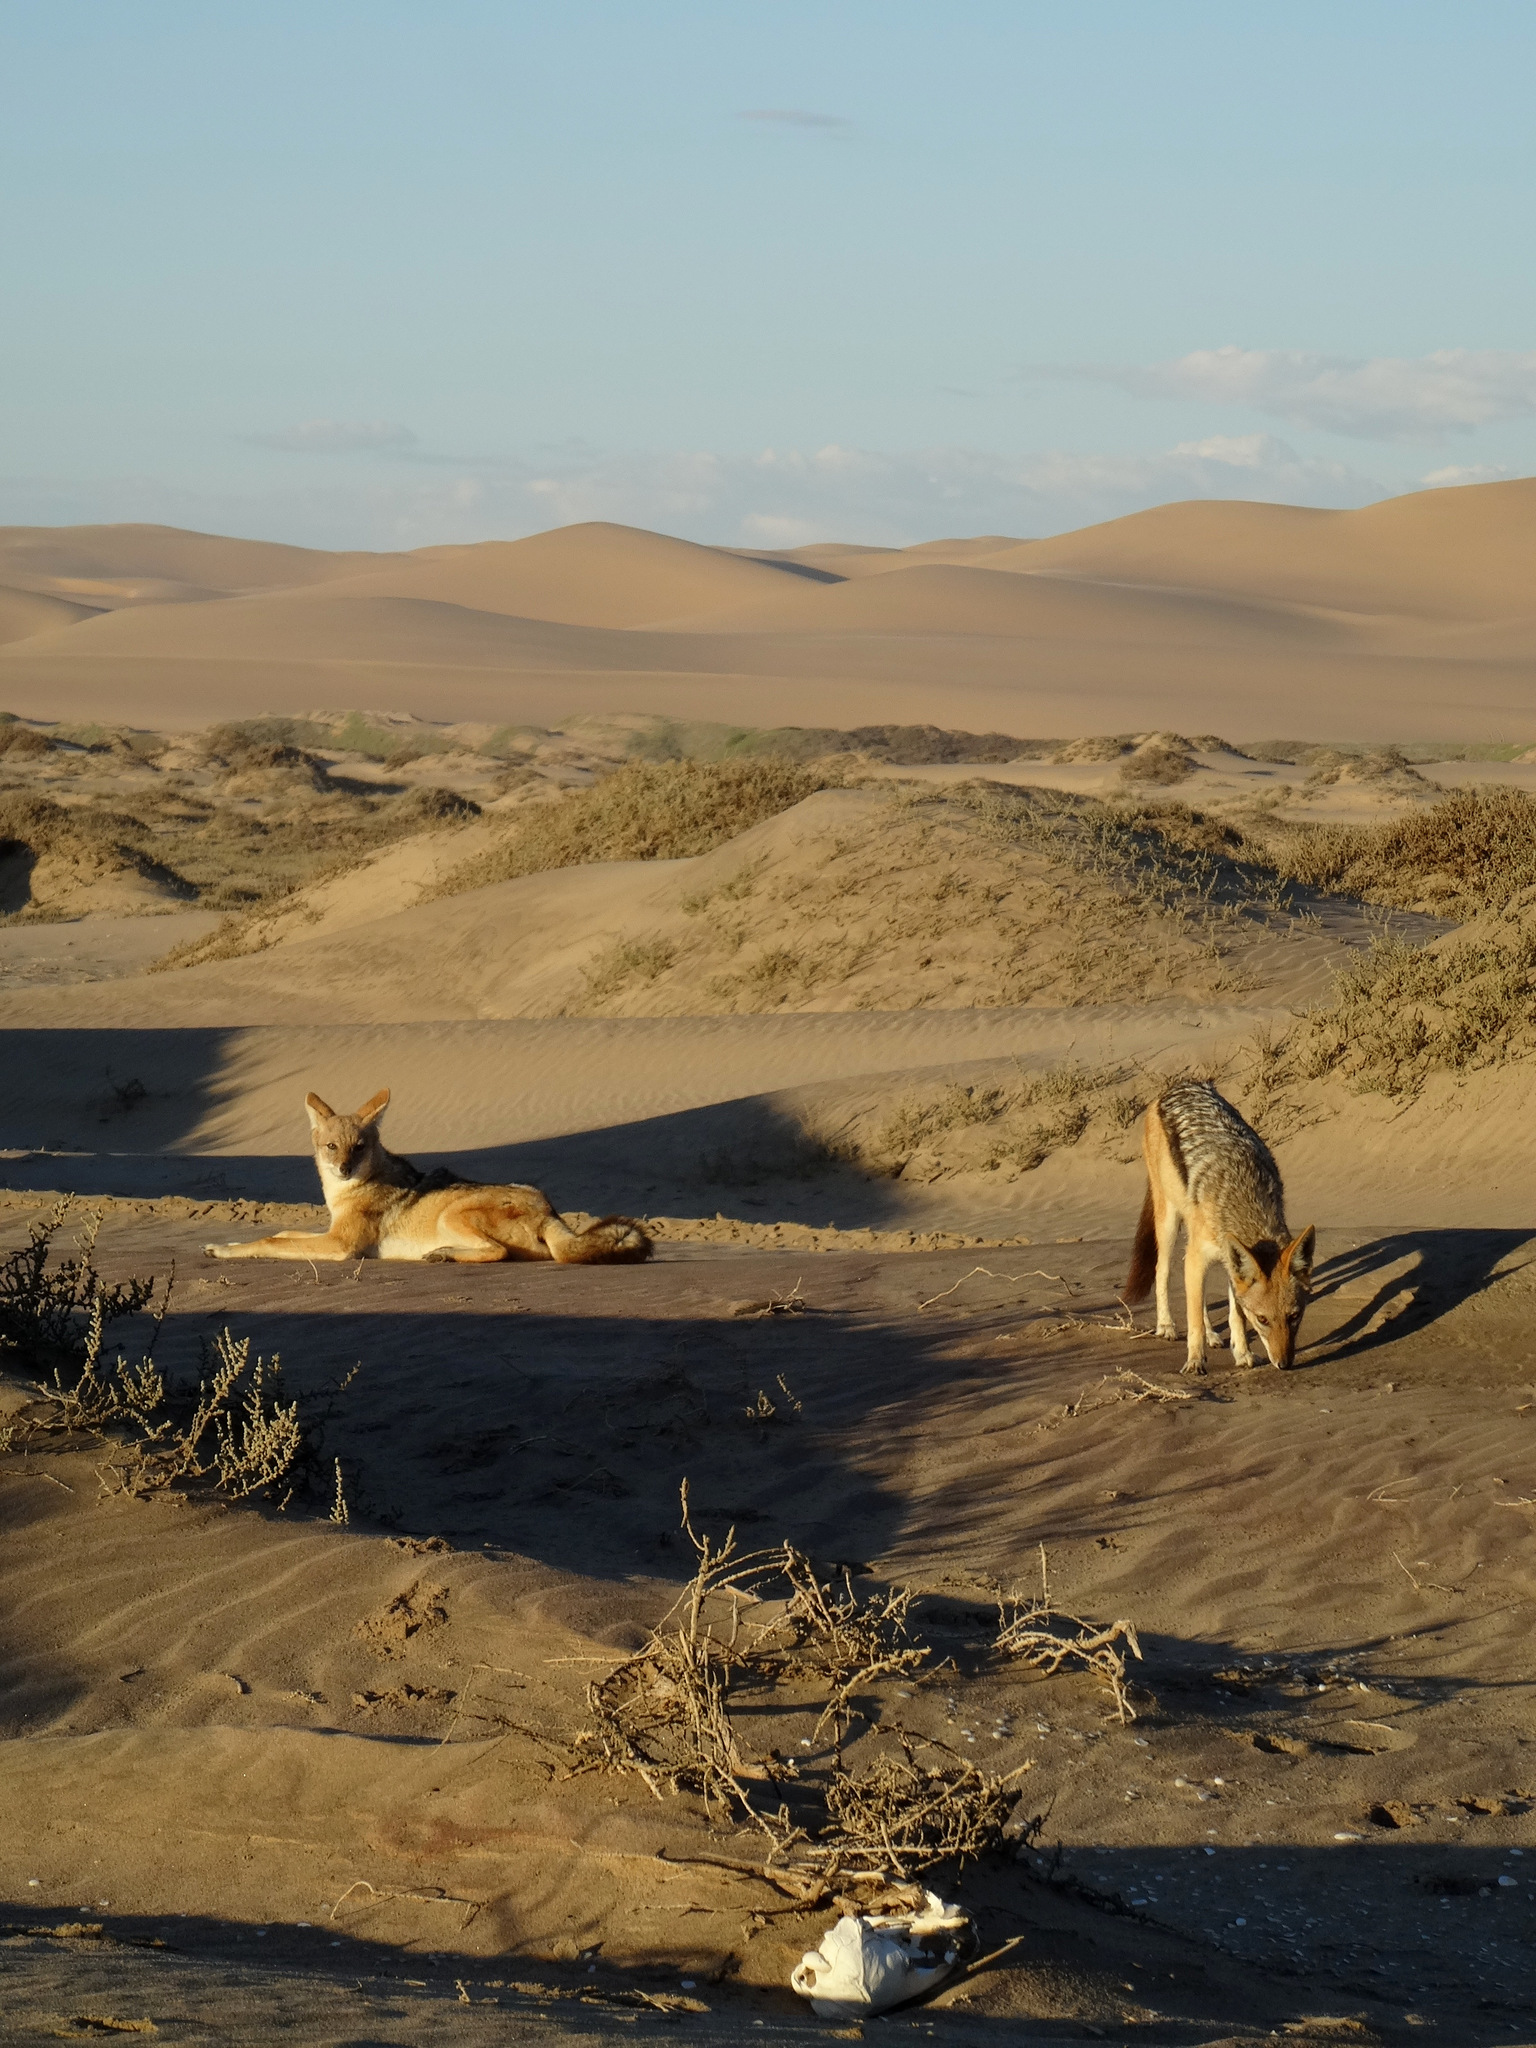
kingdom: Animalia
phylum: Chordata
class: Mammalia
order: Carnivora
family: Canidae
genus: Lupulella
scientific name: Lupulella
